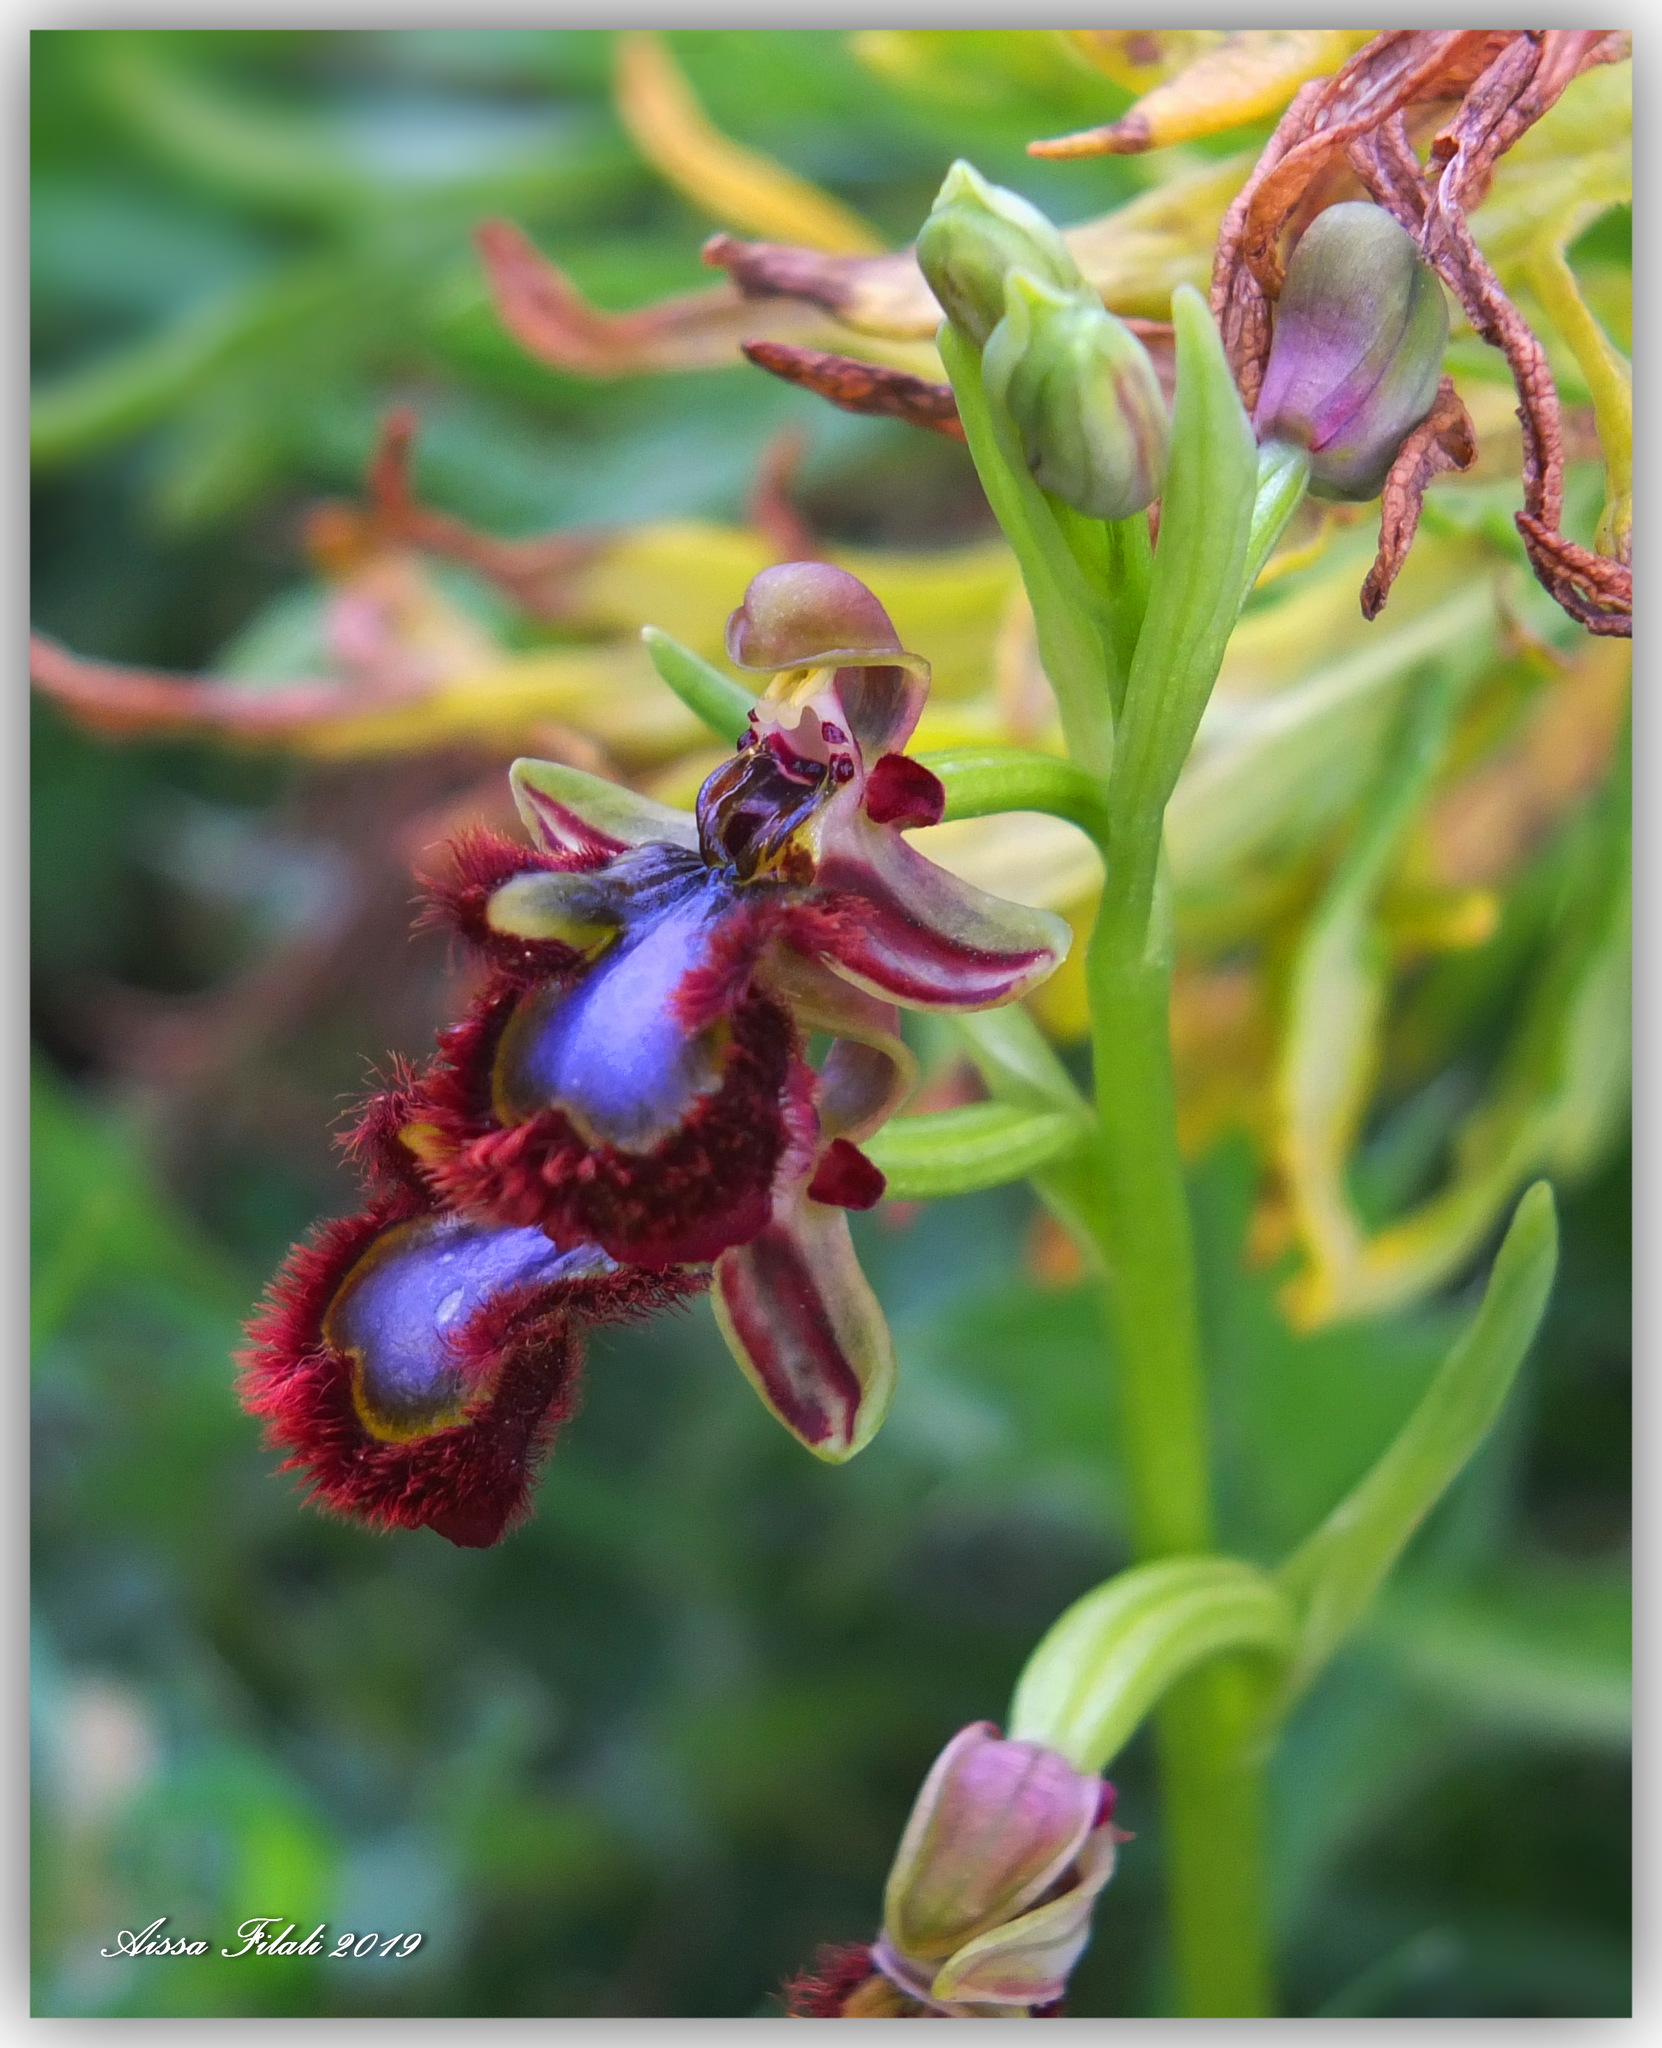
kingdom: Plantae
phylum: Tracheophyta
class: Liliopsida
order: Asparagales
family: Orchidaceae
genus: Ophrys
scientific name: Ophrys speculum
